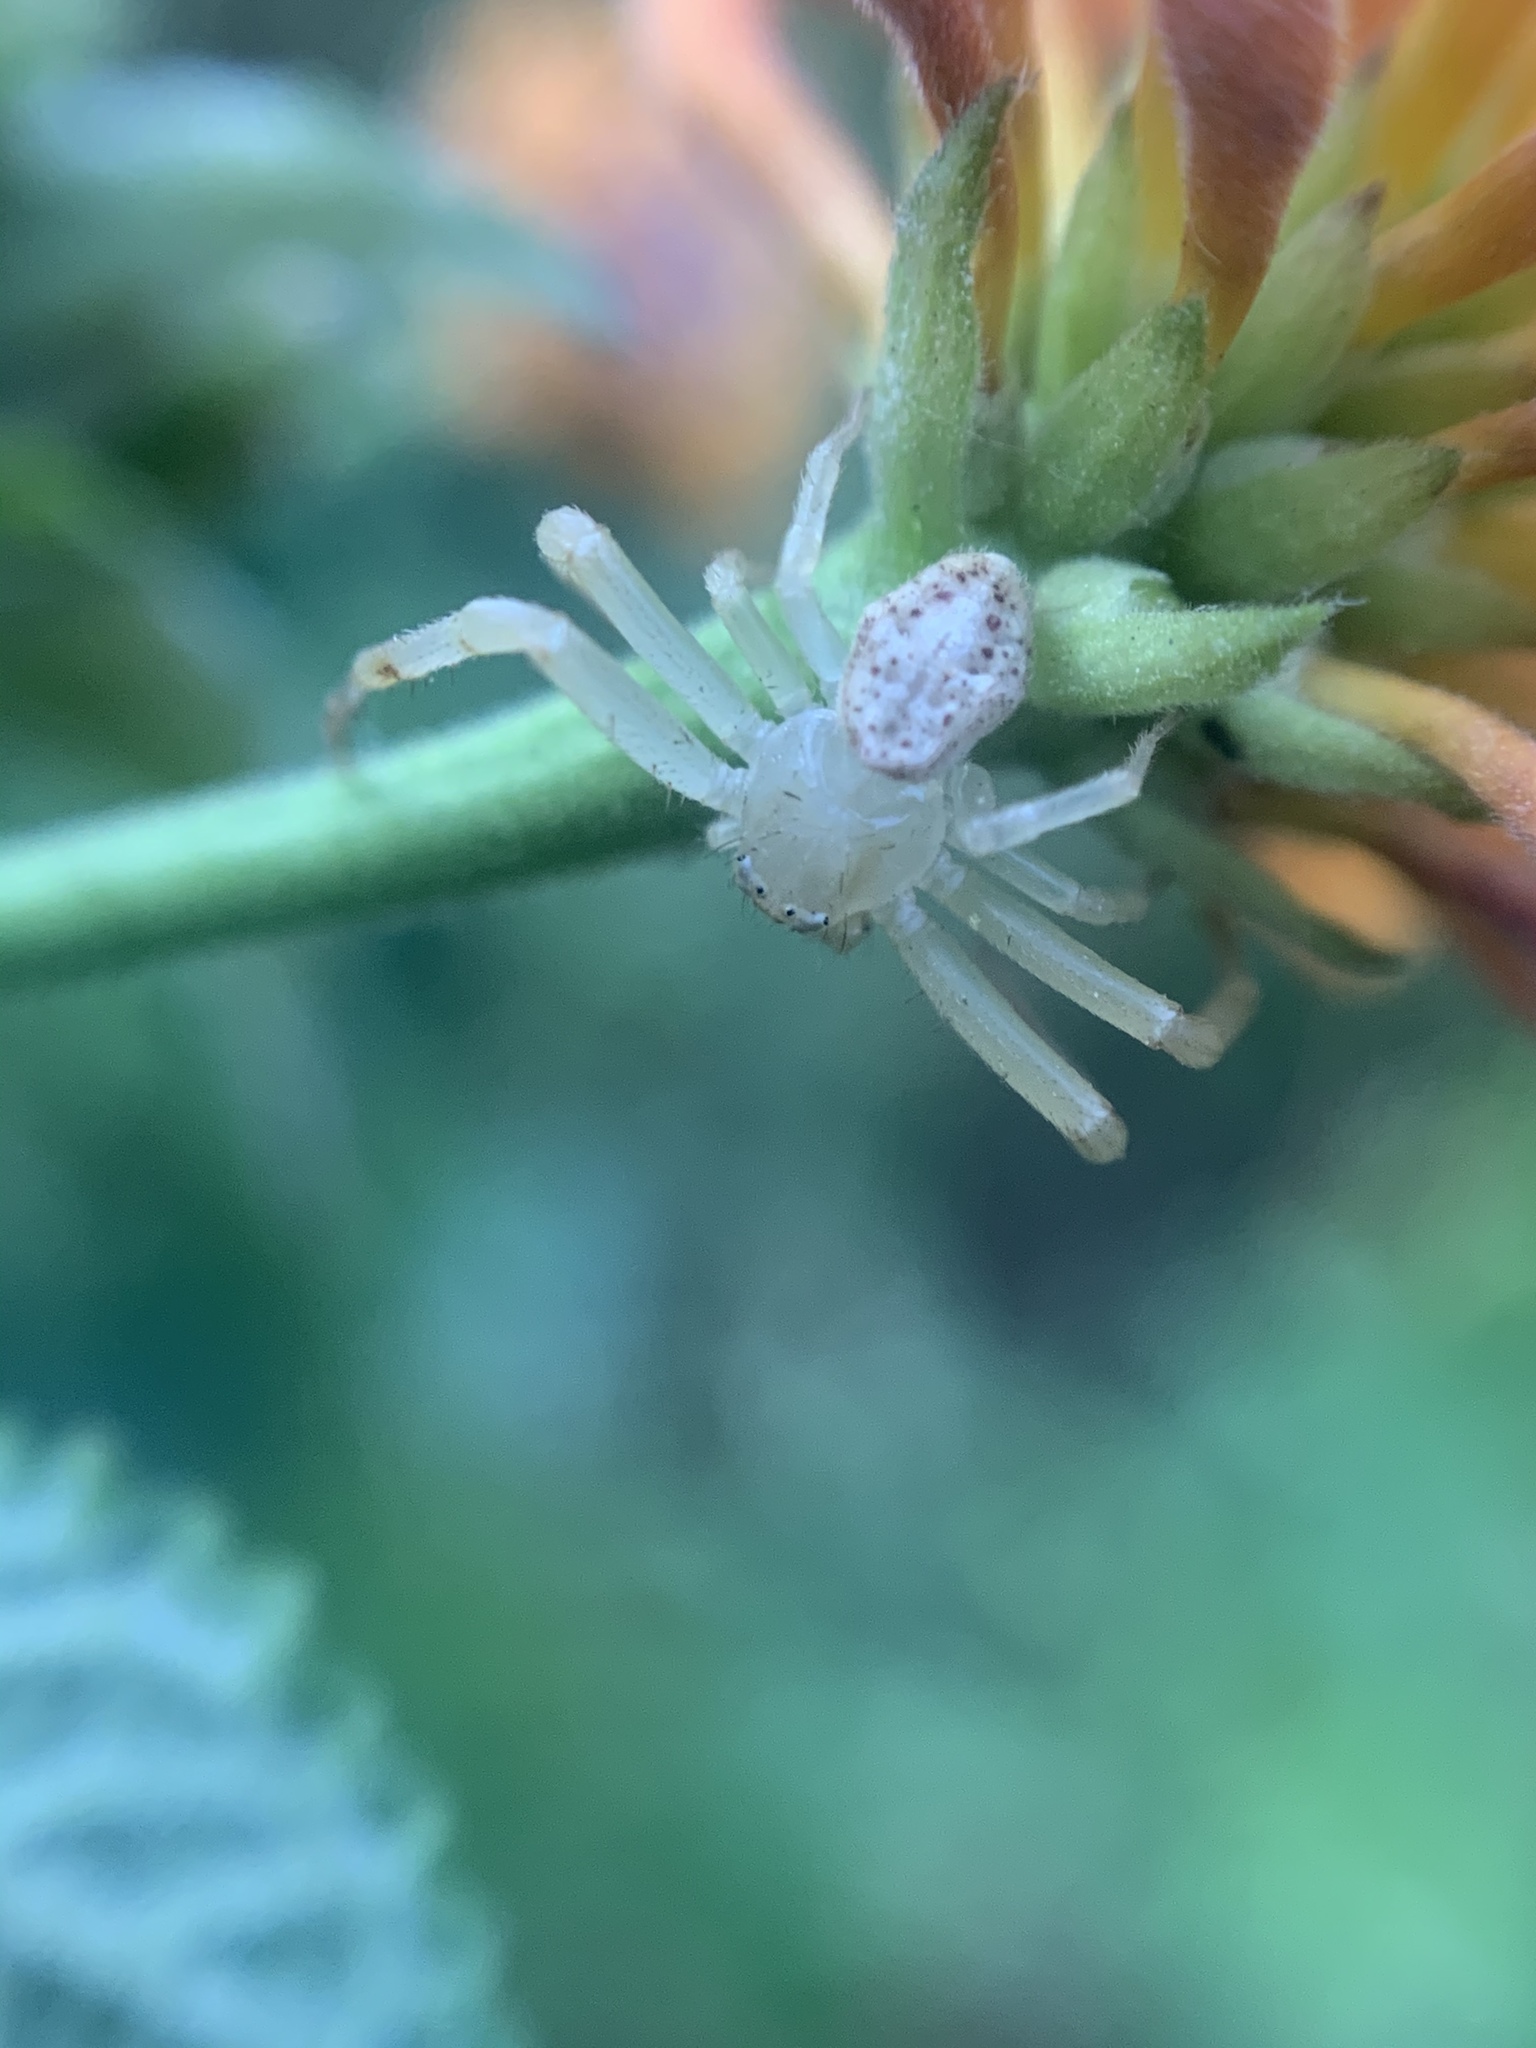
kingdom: Animalia
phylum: Arthropoda
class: Arachnida
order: Araneae
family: Thomisidae
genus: Misumenops
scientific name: Misumenops
